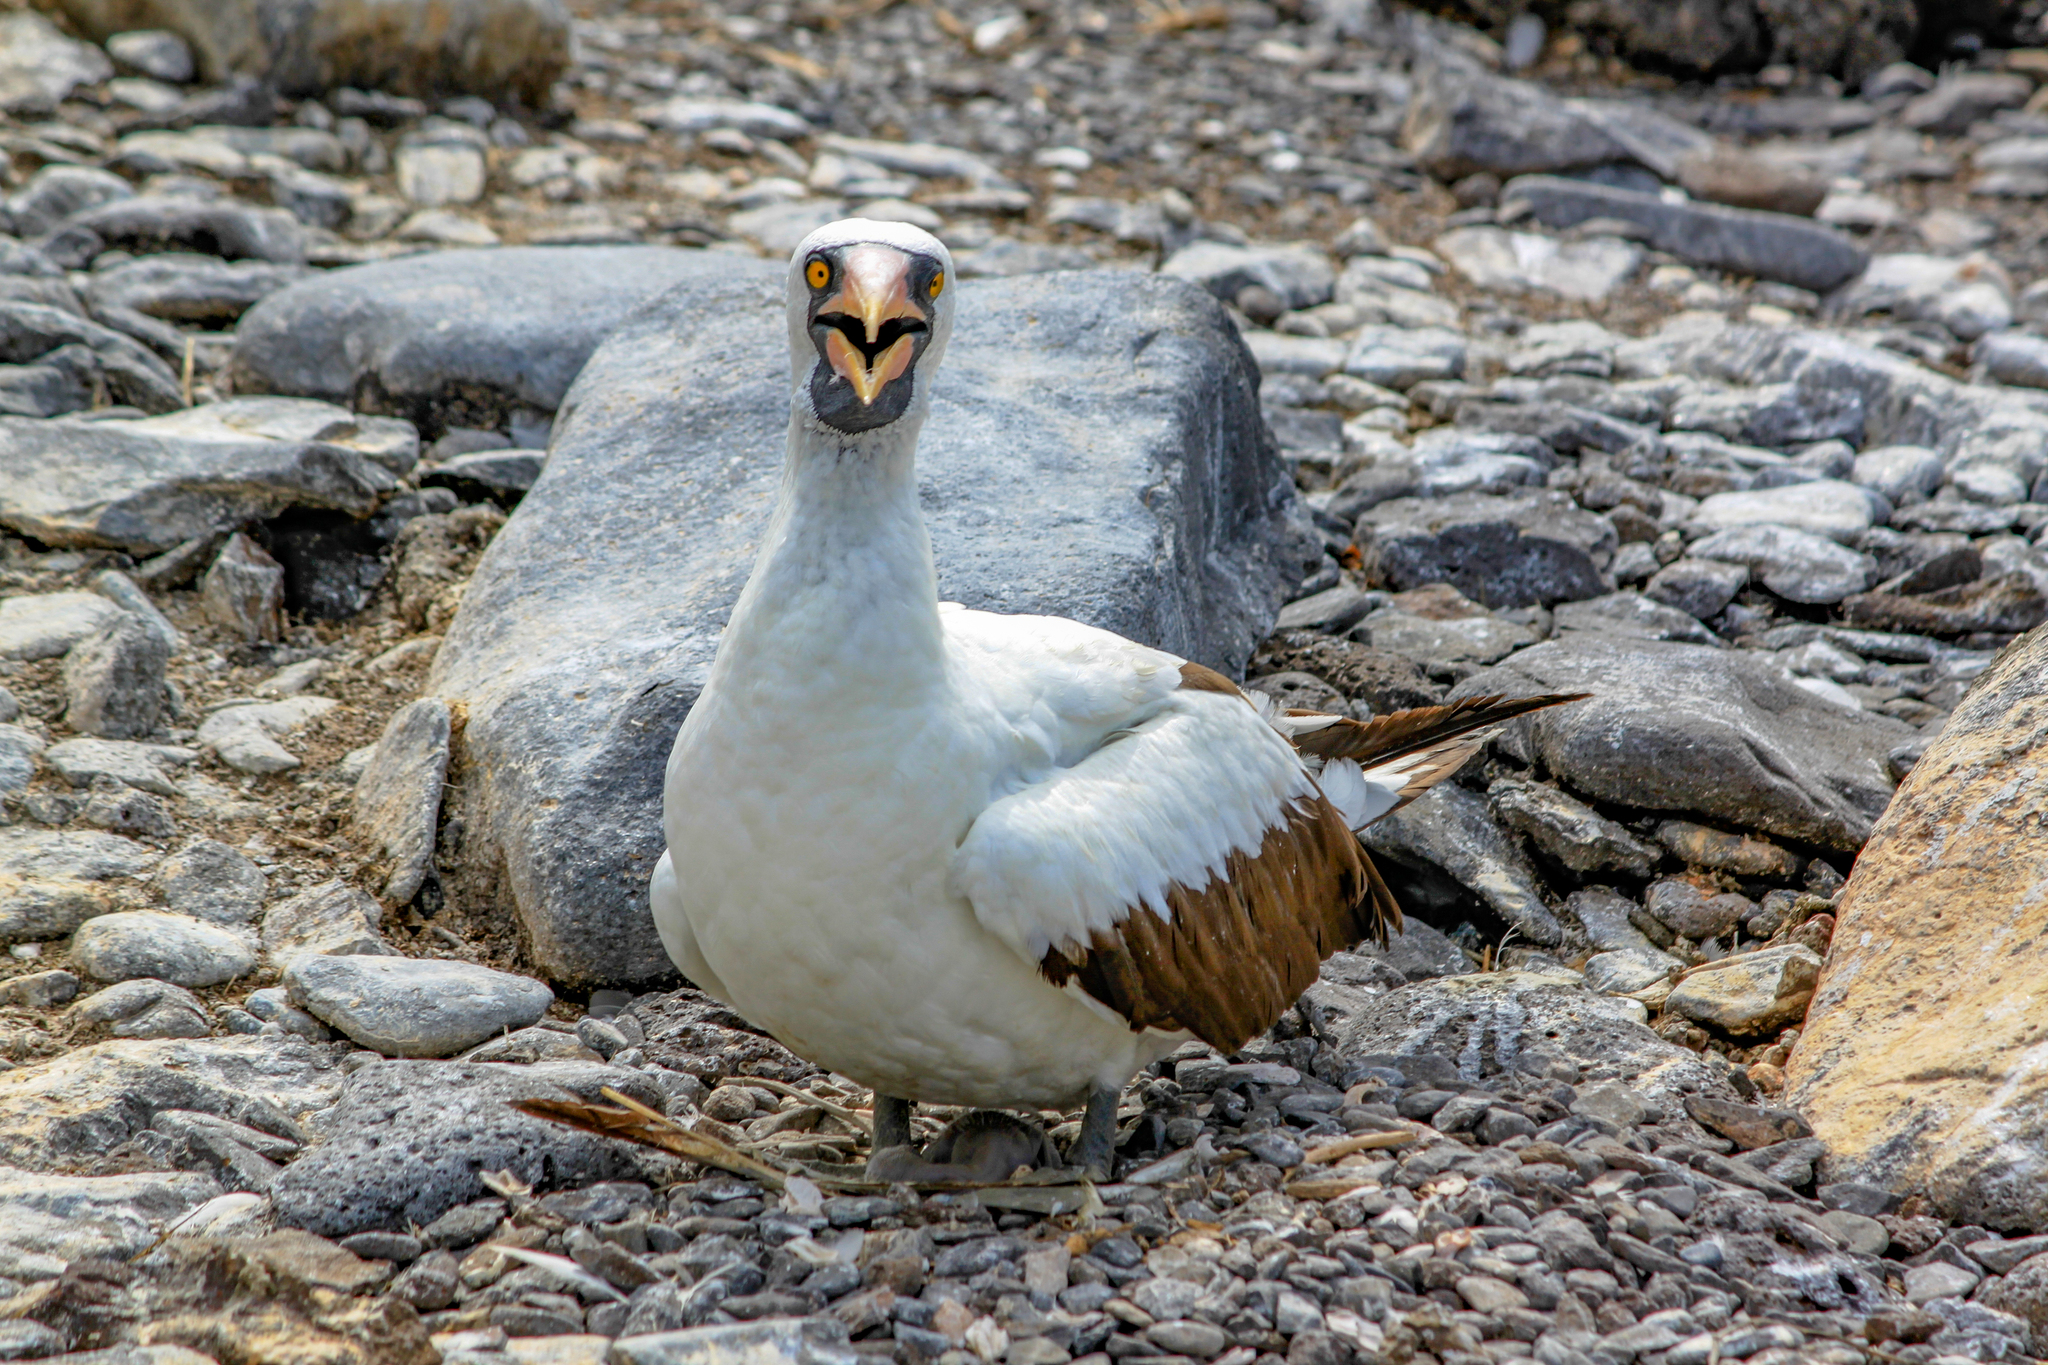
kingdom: Animalia
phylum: Chordata
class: Aves
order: Suliformes
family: Sulidae
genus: Sula
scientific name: Sula granti
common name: Nazca booby
